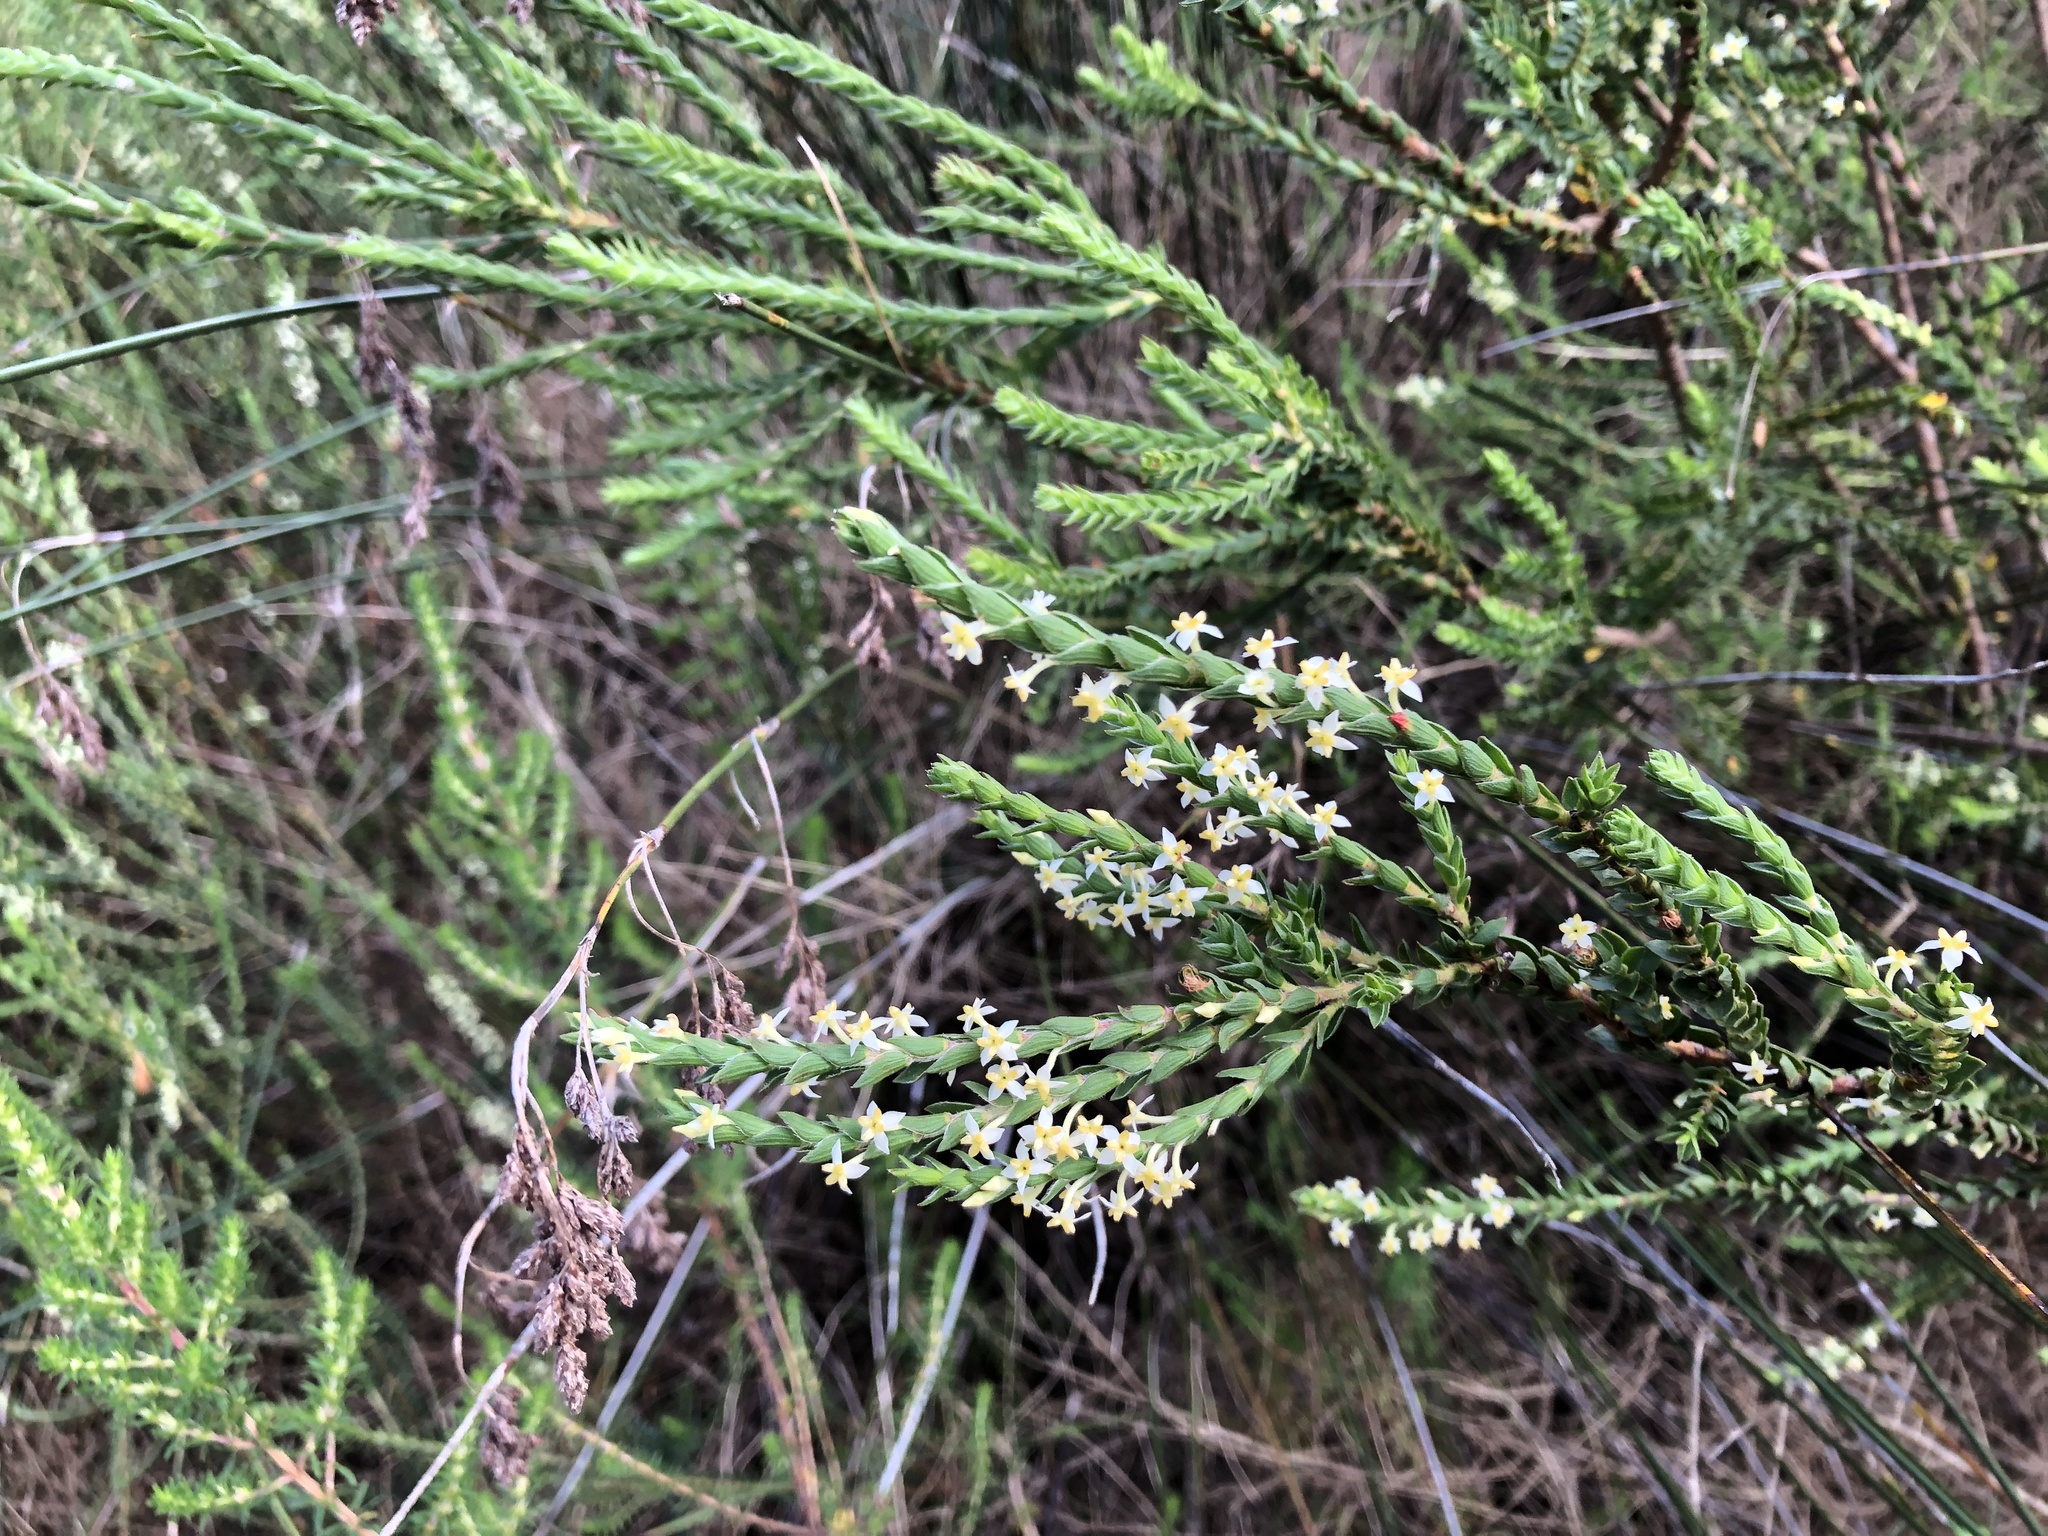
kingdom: Plantae
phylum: Tracheophyta
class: Magnoliopsida
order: Malvales
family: Thymelaeaceae
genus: Struthiola
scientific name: Struthiola striata
